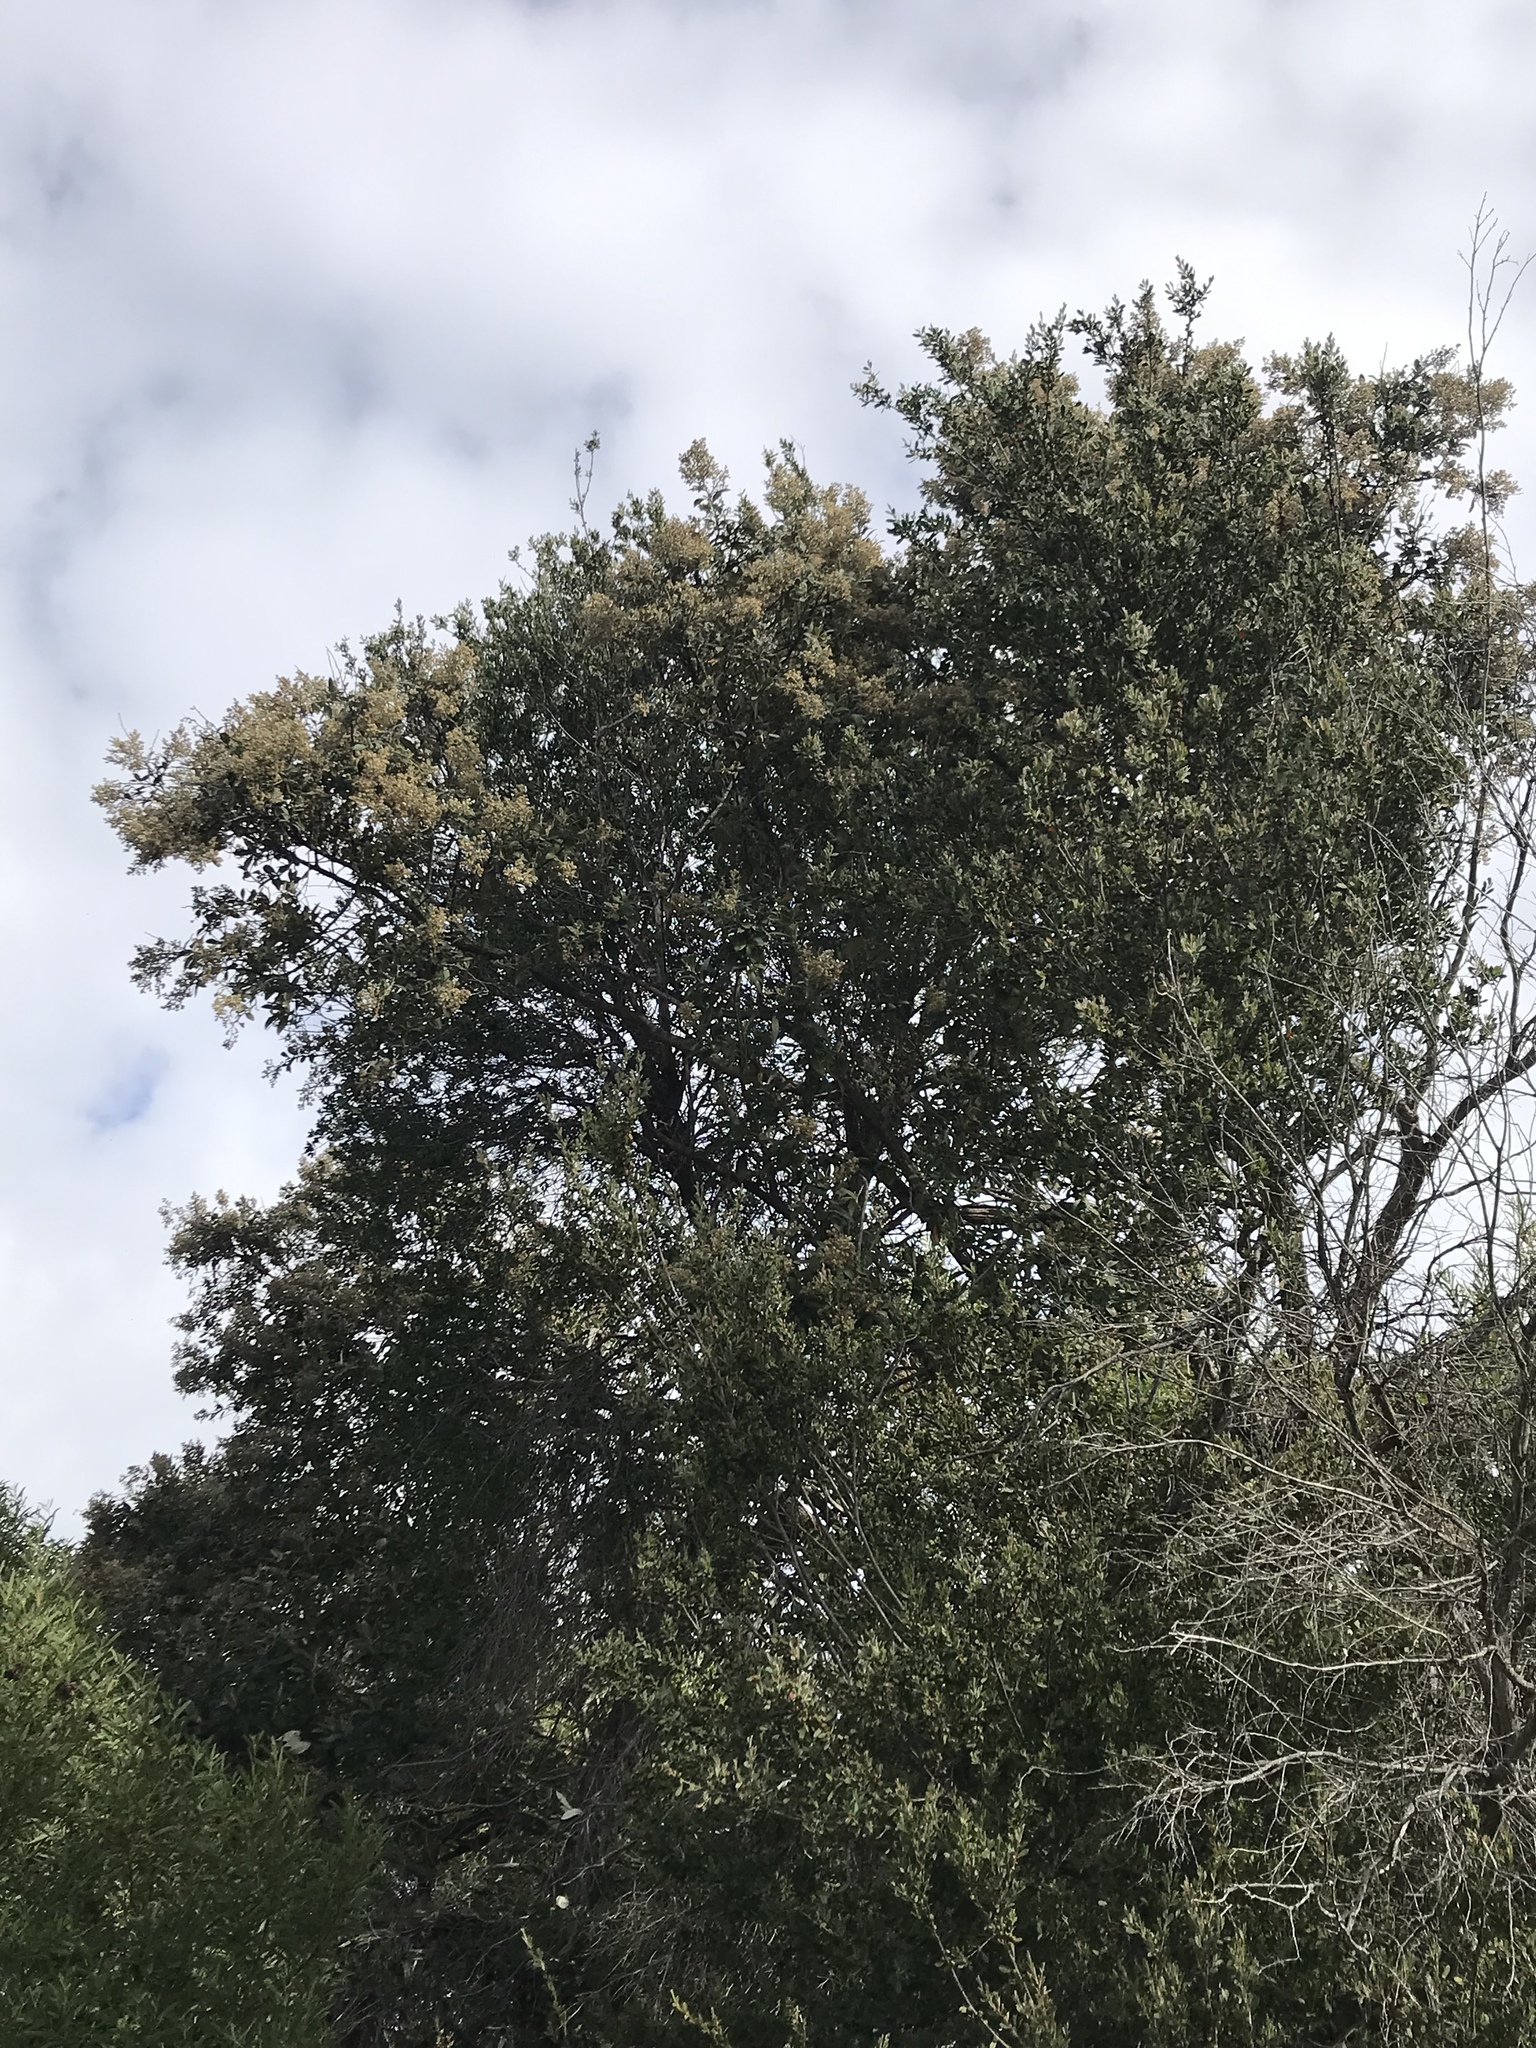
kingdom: Plantae
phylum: Tracheophyta
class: Magnoliopsida
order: Asterales
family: Asteraceae
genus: Tarchonanthus
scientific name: Tarchonanthus littoralis
